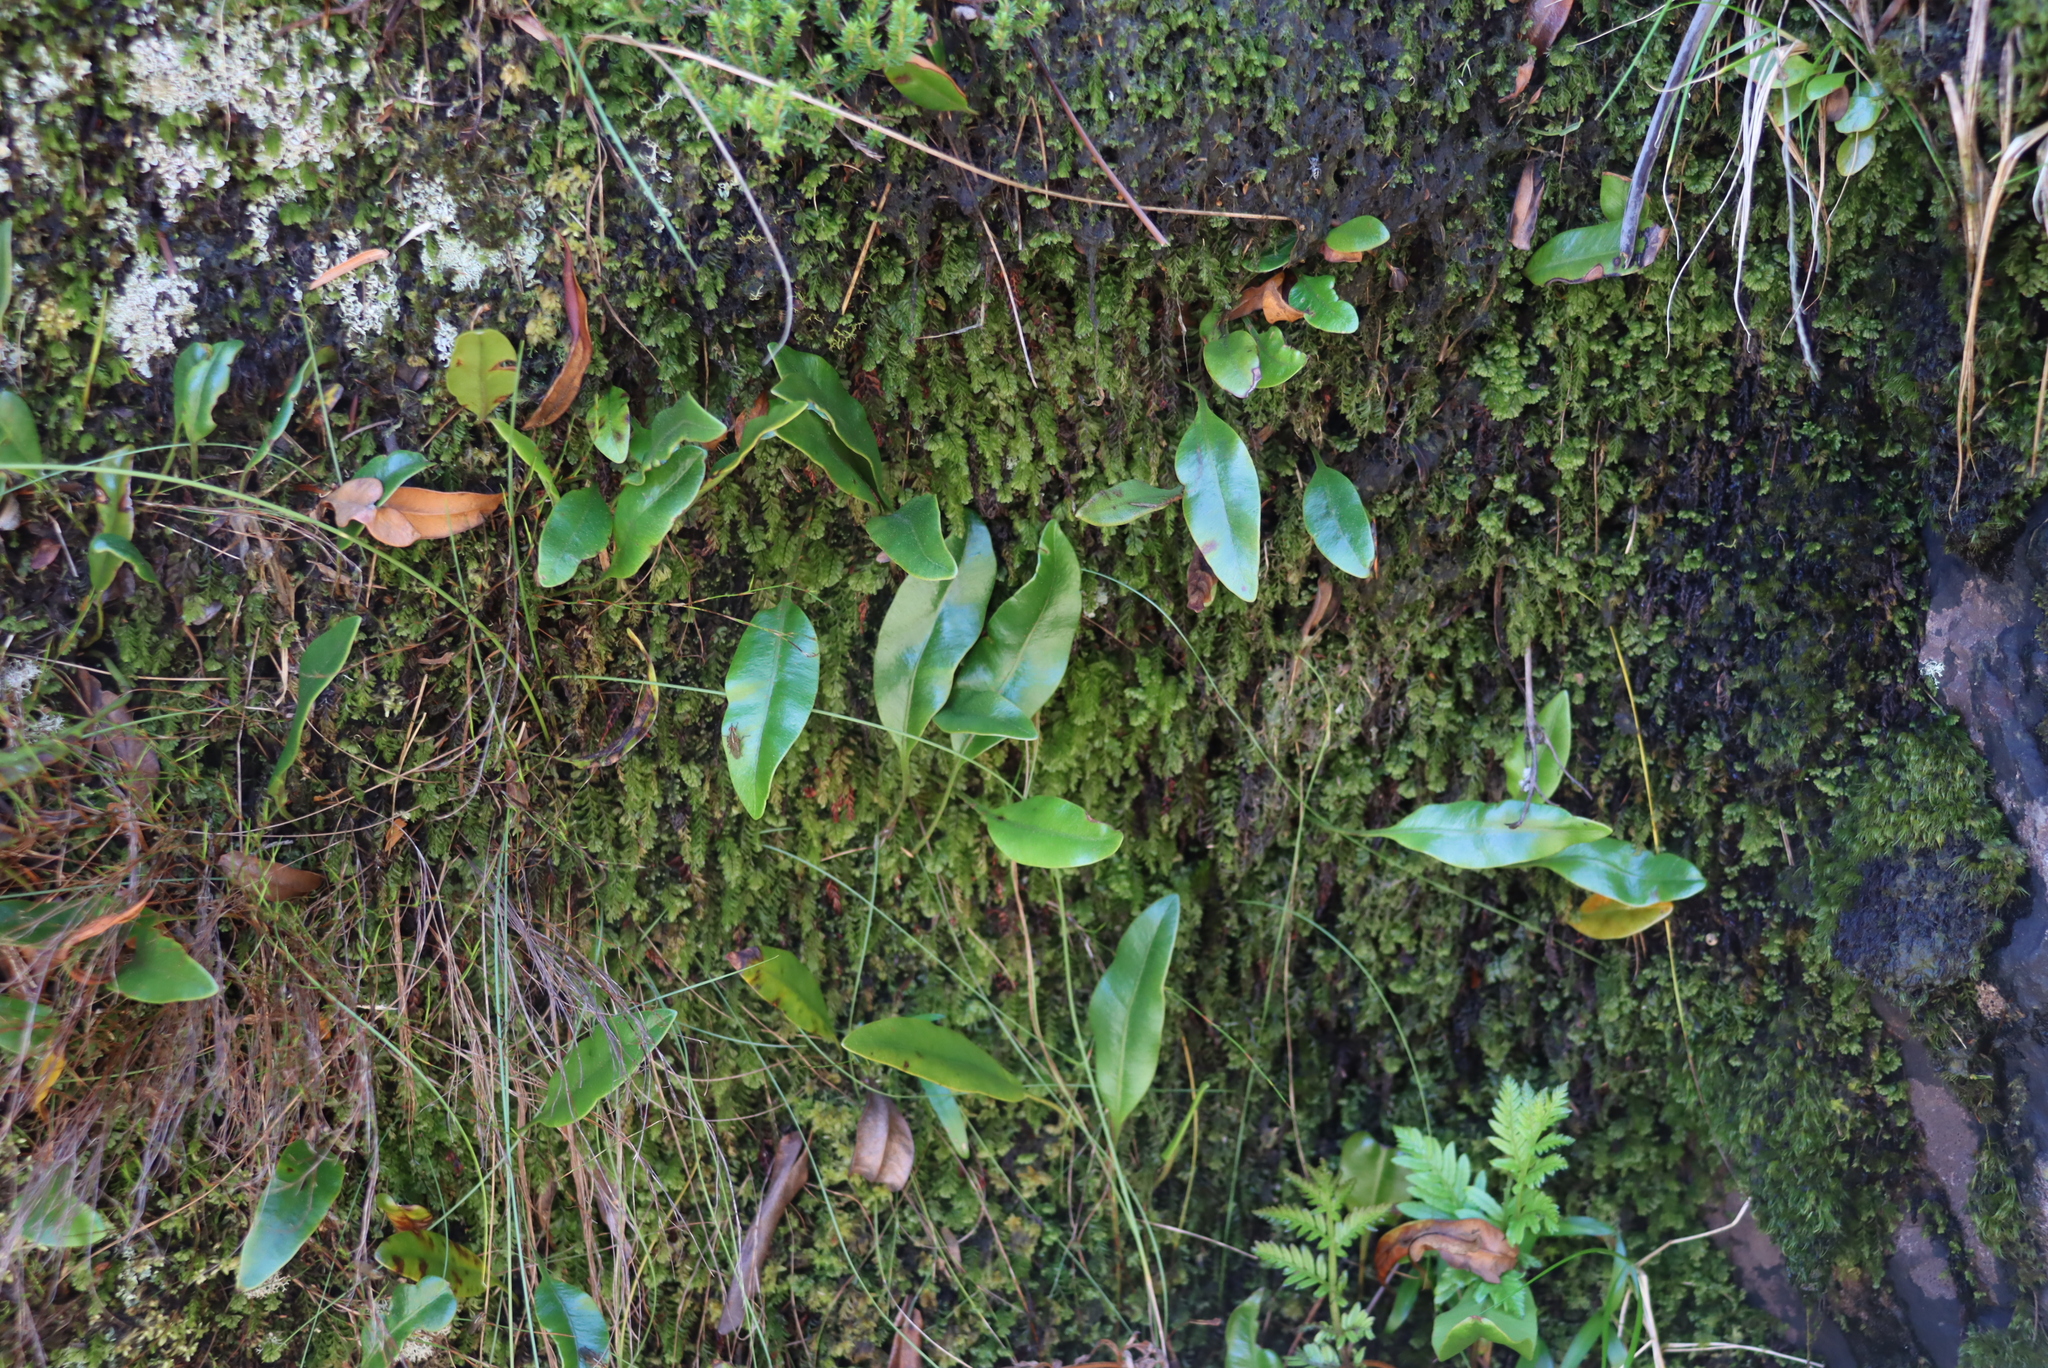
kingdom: Plantae
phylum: Tracheophyta
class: Polypodiopsida
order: Polypodiales
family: Dryopteridaceae
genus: Elaphoglossum
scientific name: Elaphoglossum conforme
